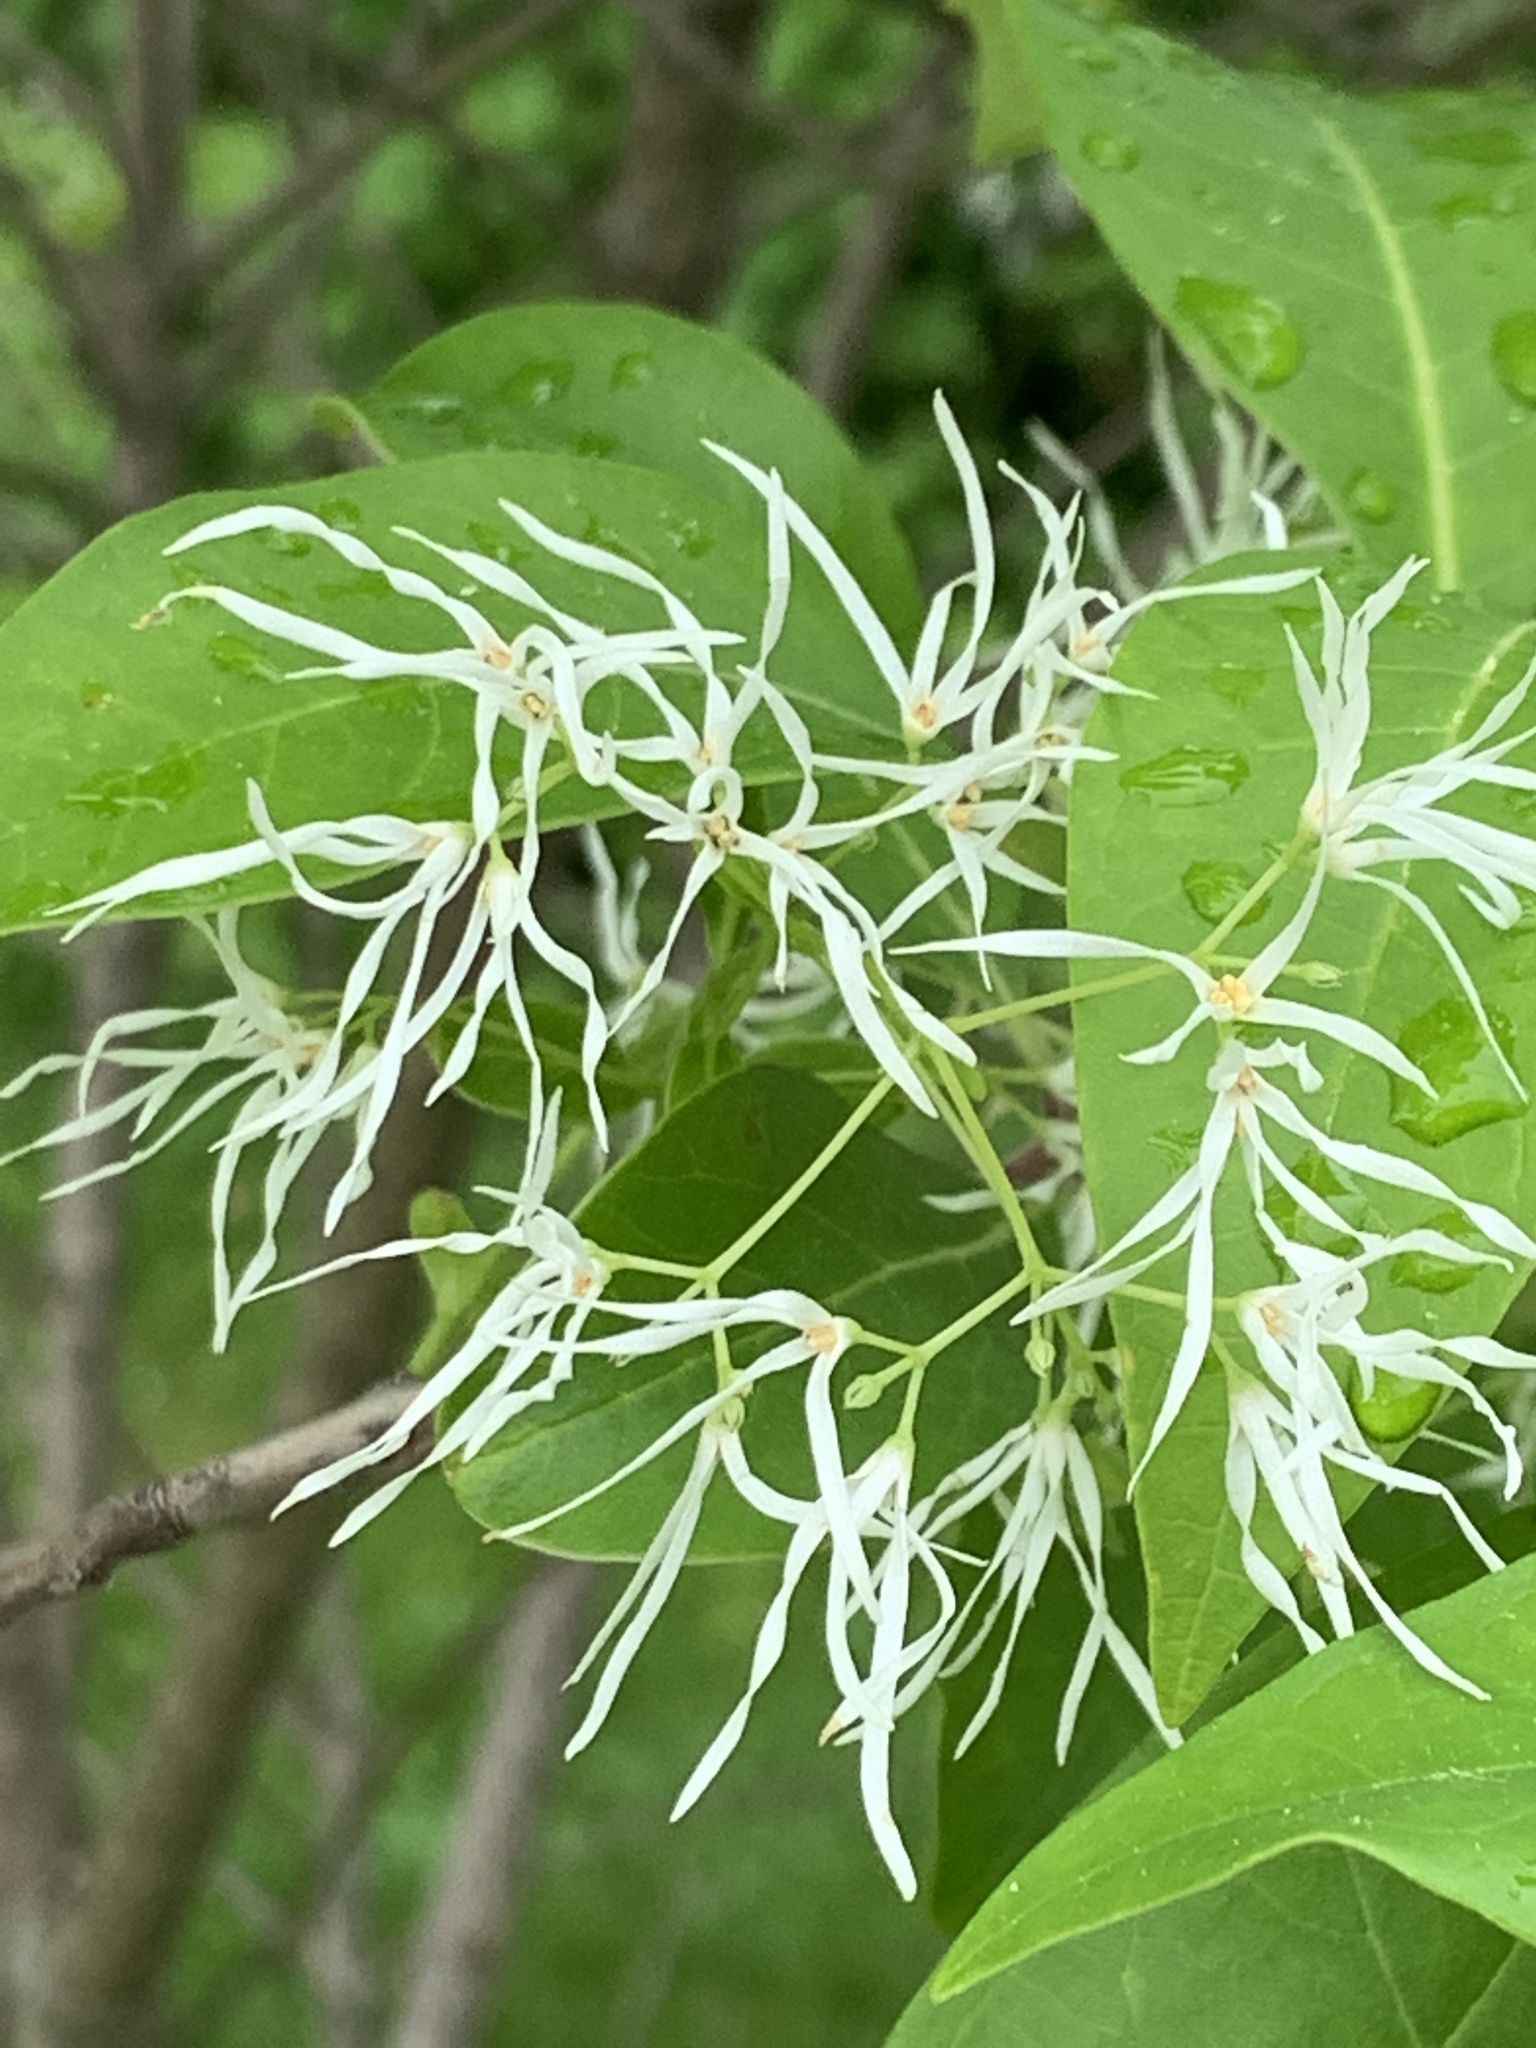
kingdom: Plantae
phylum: Tracheophyta
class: Magnoliopsida
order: Lamiales
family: Oleaceae
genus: Chionanthus
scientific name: Chionanthus virginicus
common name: American fringetree
